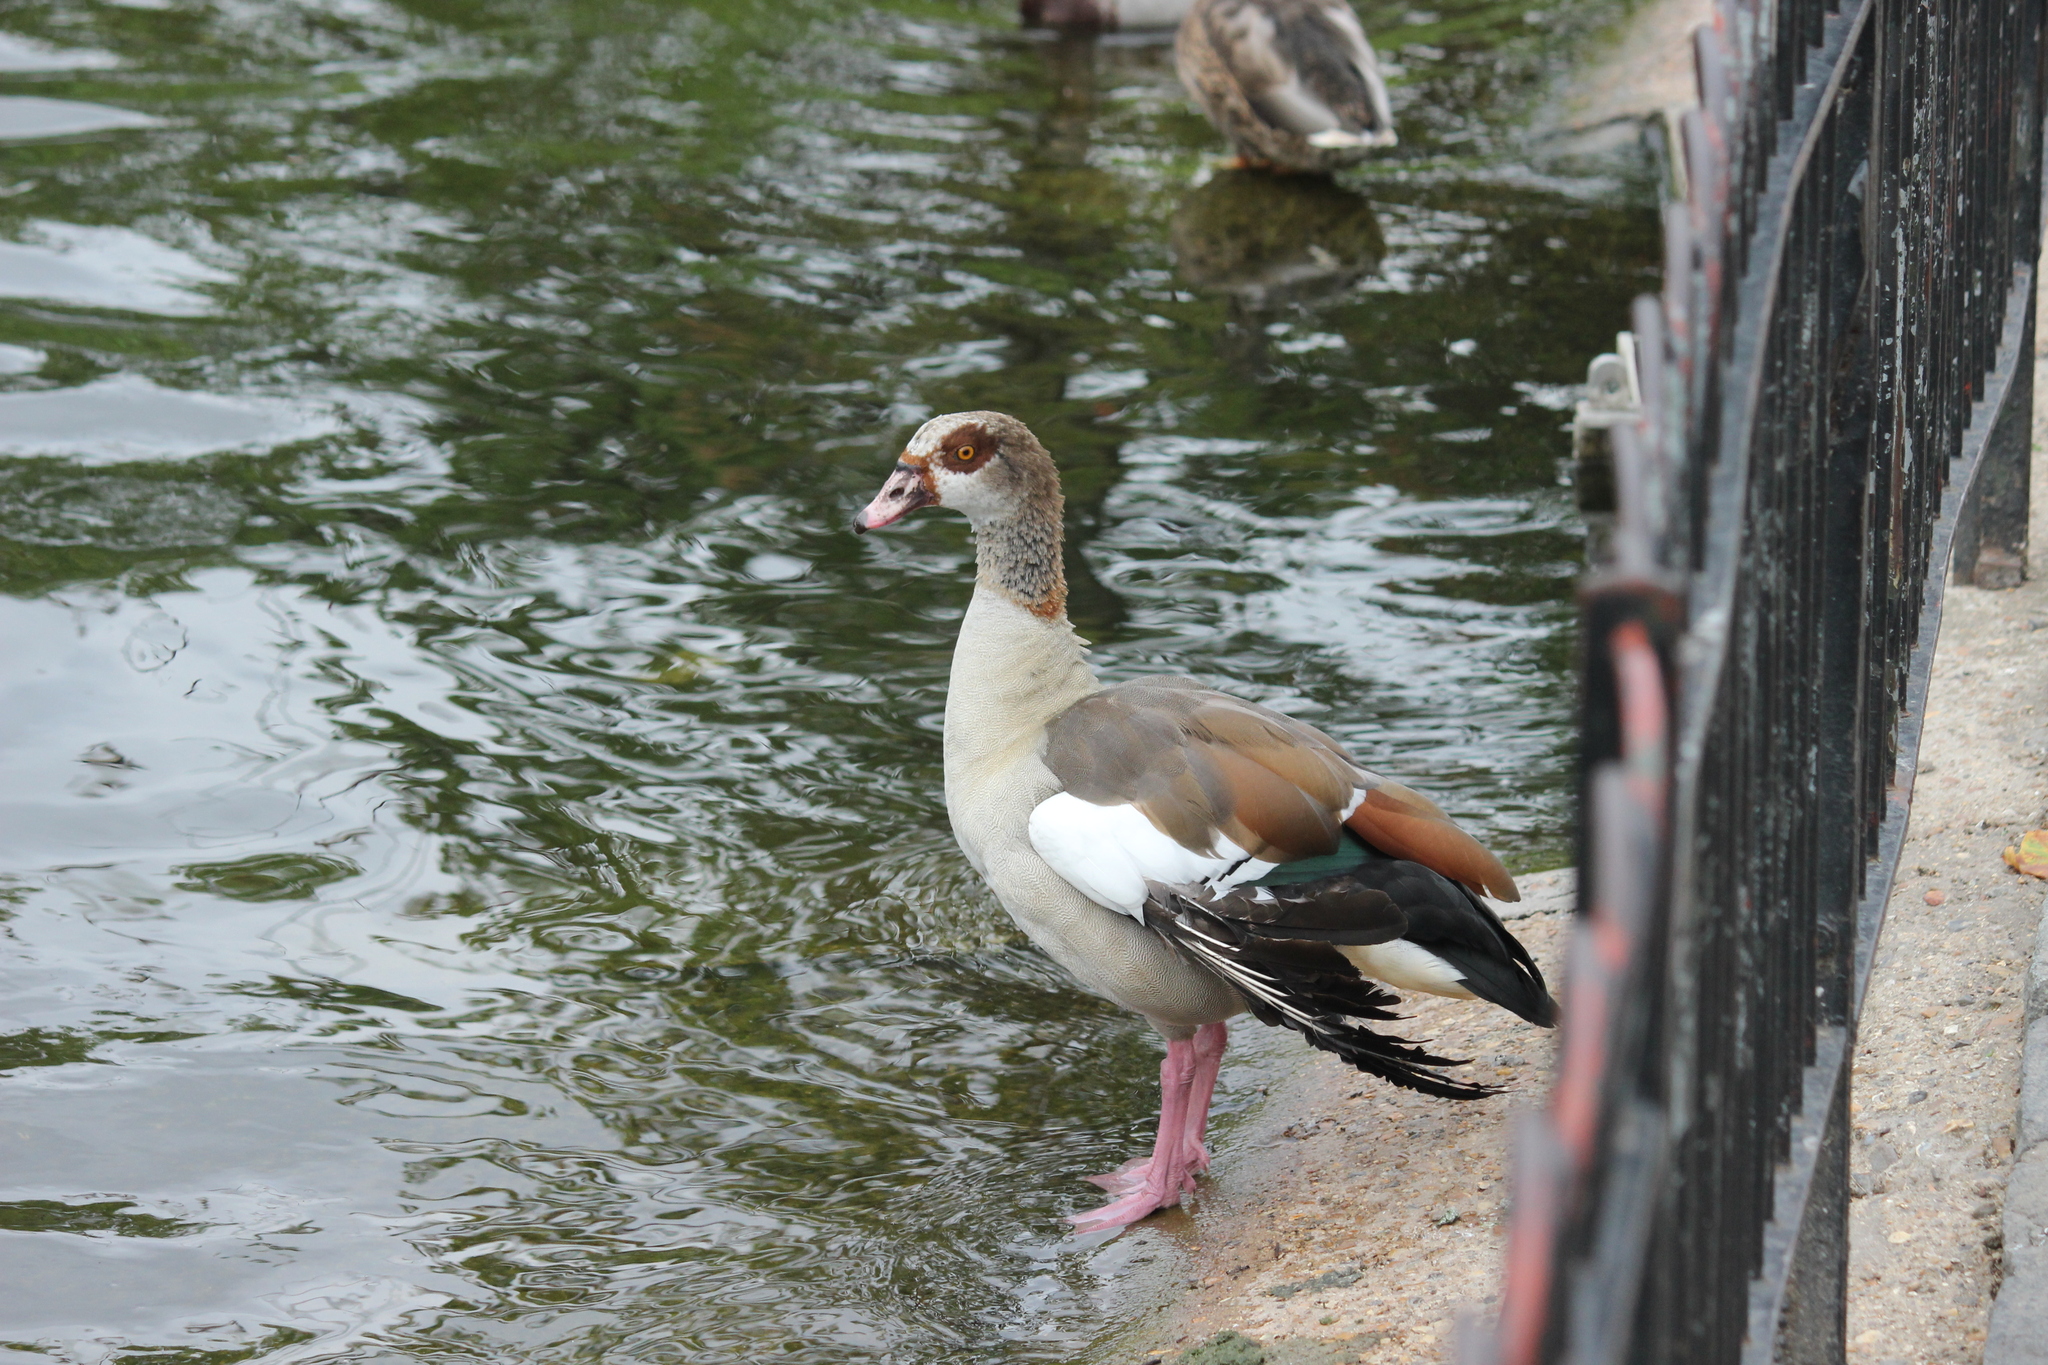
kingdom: Animalia
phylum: Chordata
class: Aves
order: Anseriformes
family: Anatidae
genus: Alopochen
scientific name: Alopochen aegyptiaca
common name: Egyptian goose
